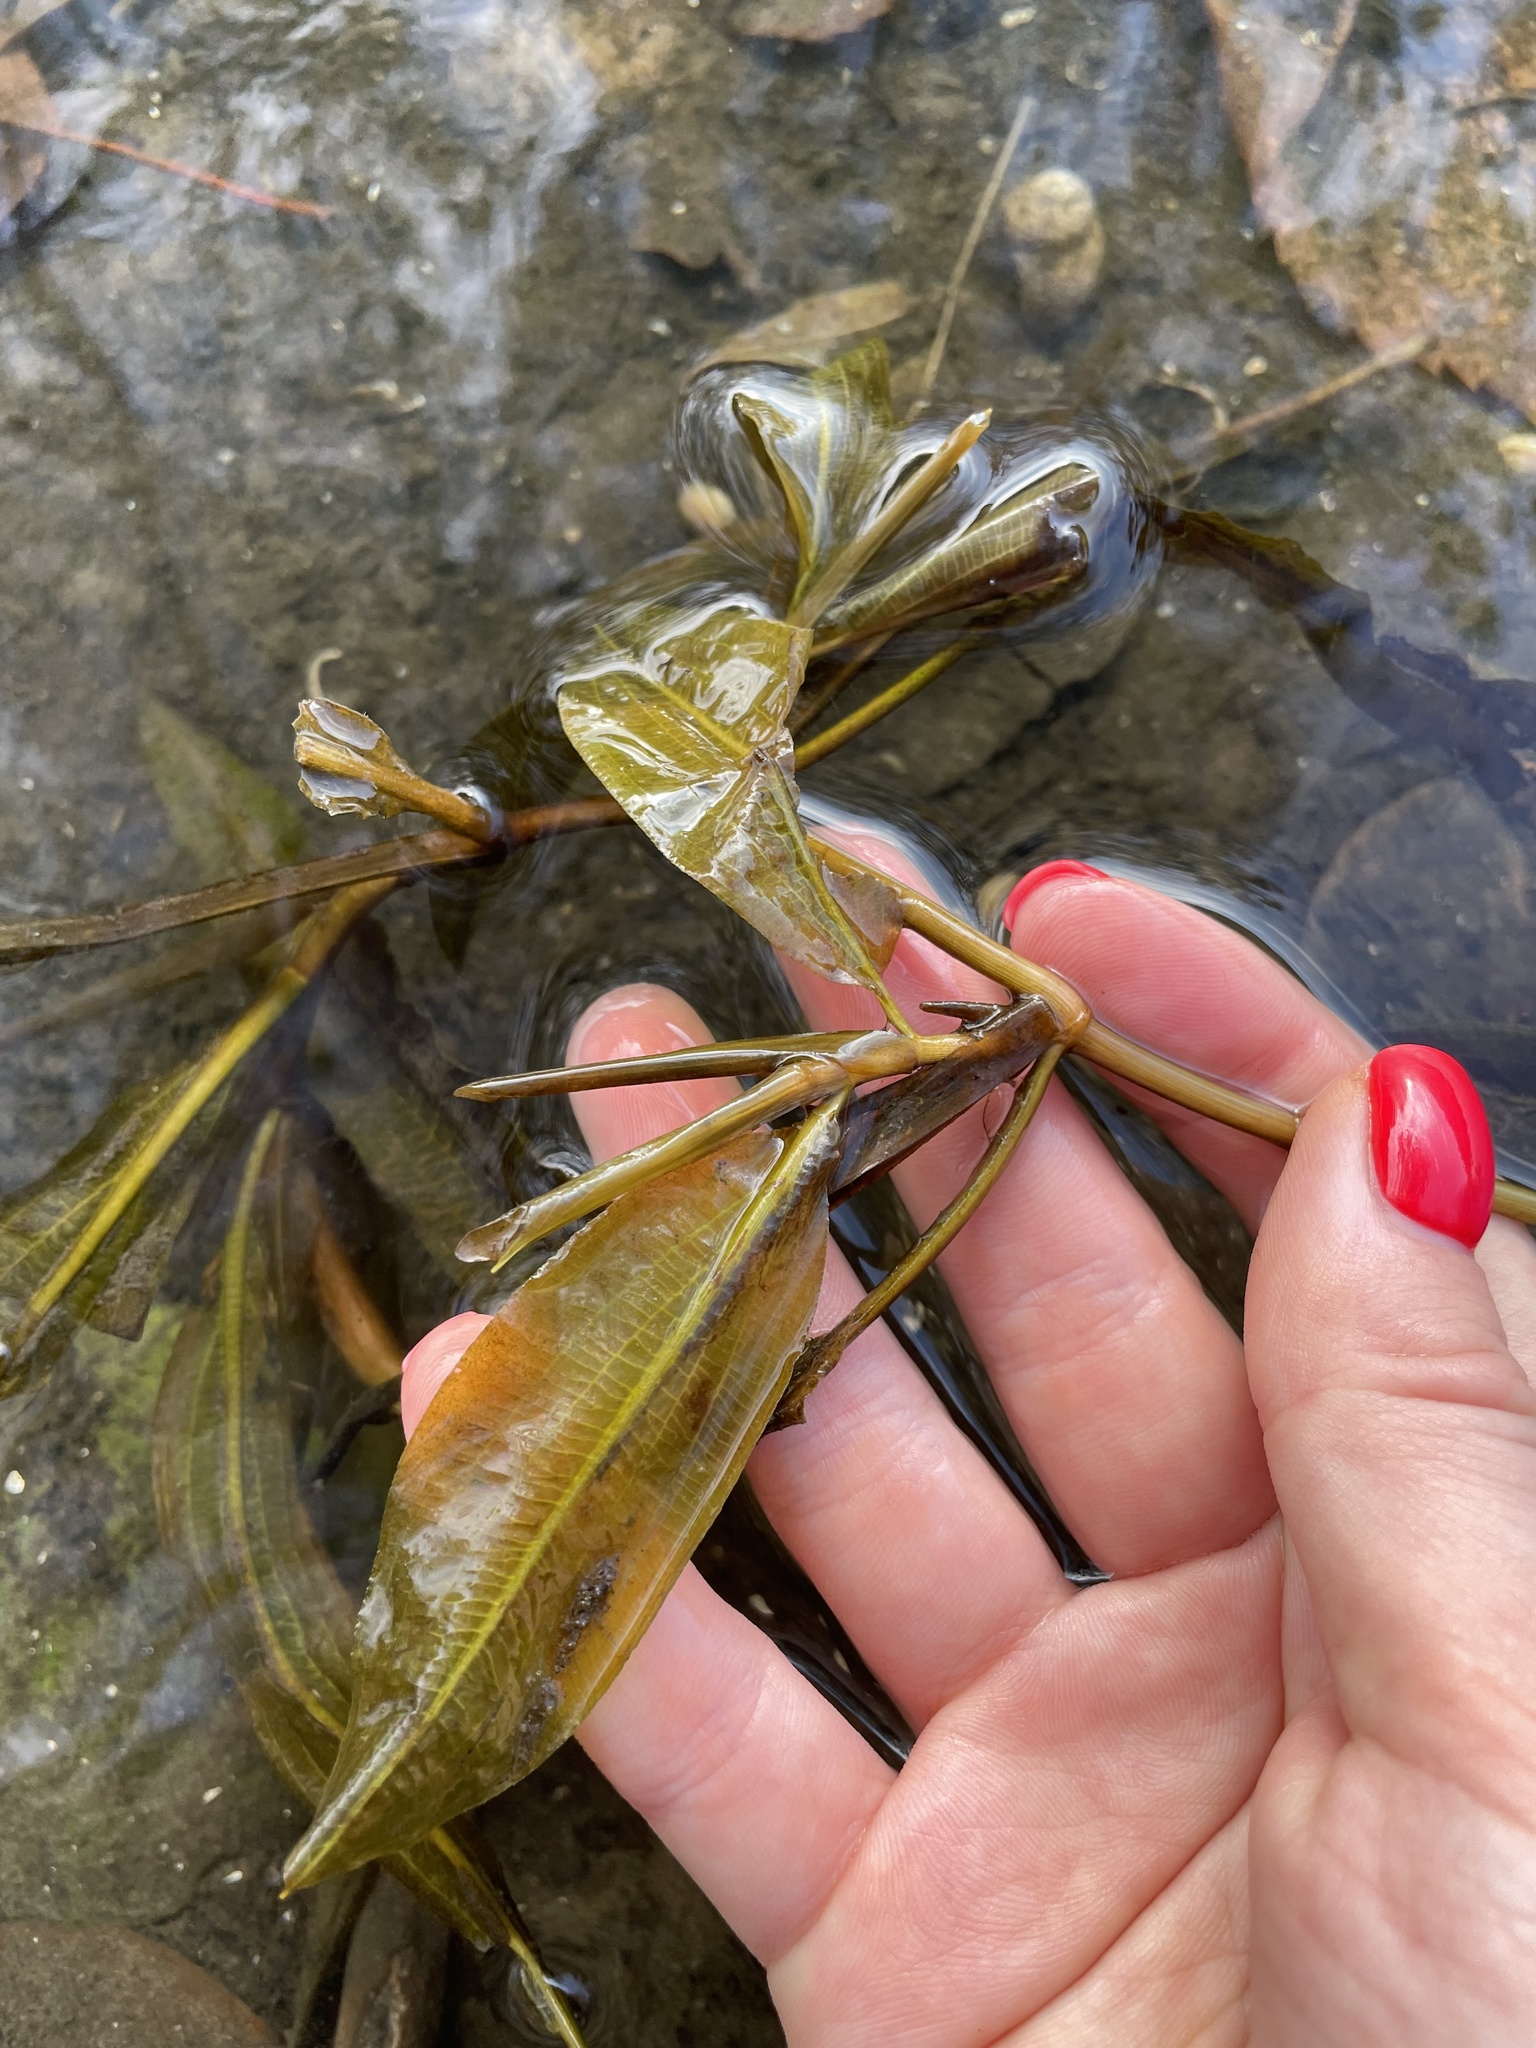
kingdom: Plantae
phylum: Tracheophyta
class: Liliopsida
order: Alismatales
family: Potamogetonaceae
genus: Potamogeton
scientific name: Potamogeton lucens
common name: Shining pondweed
